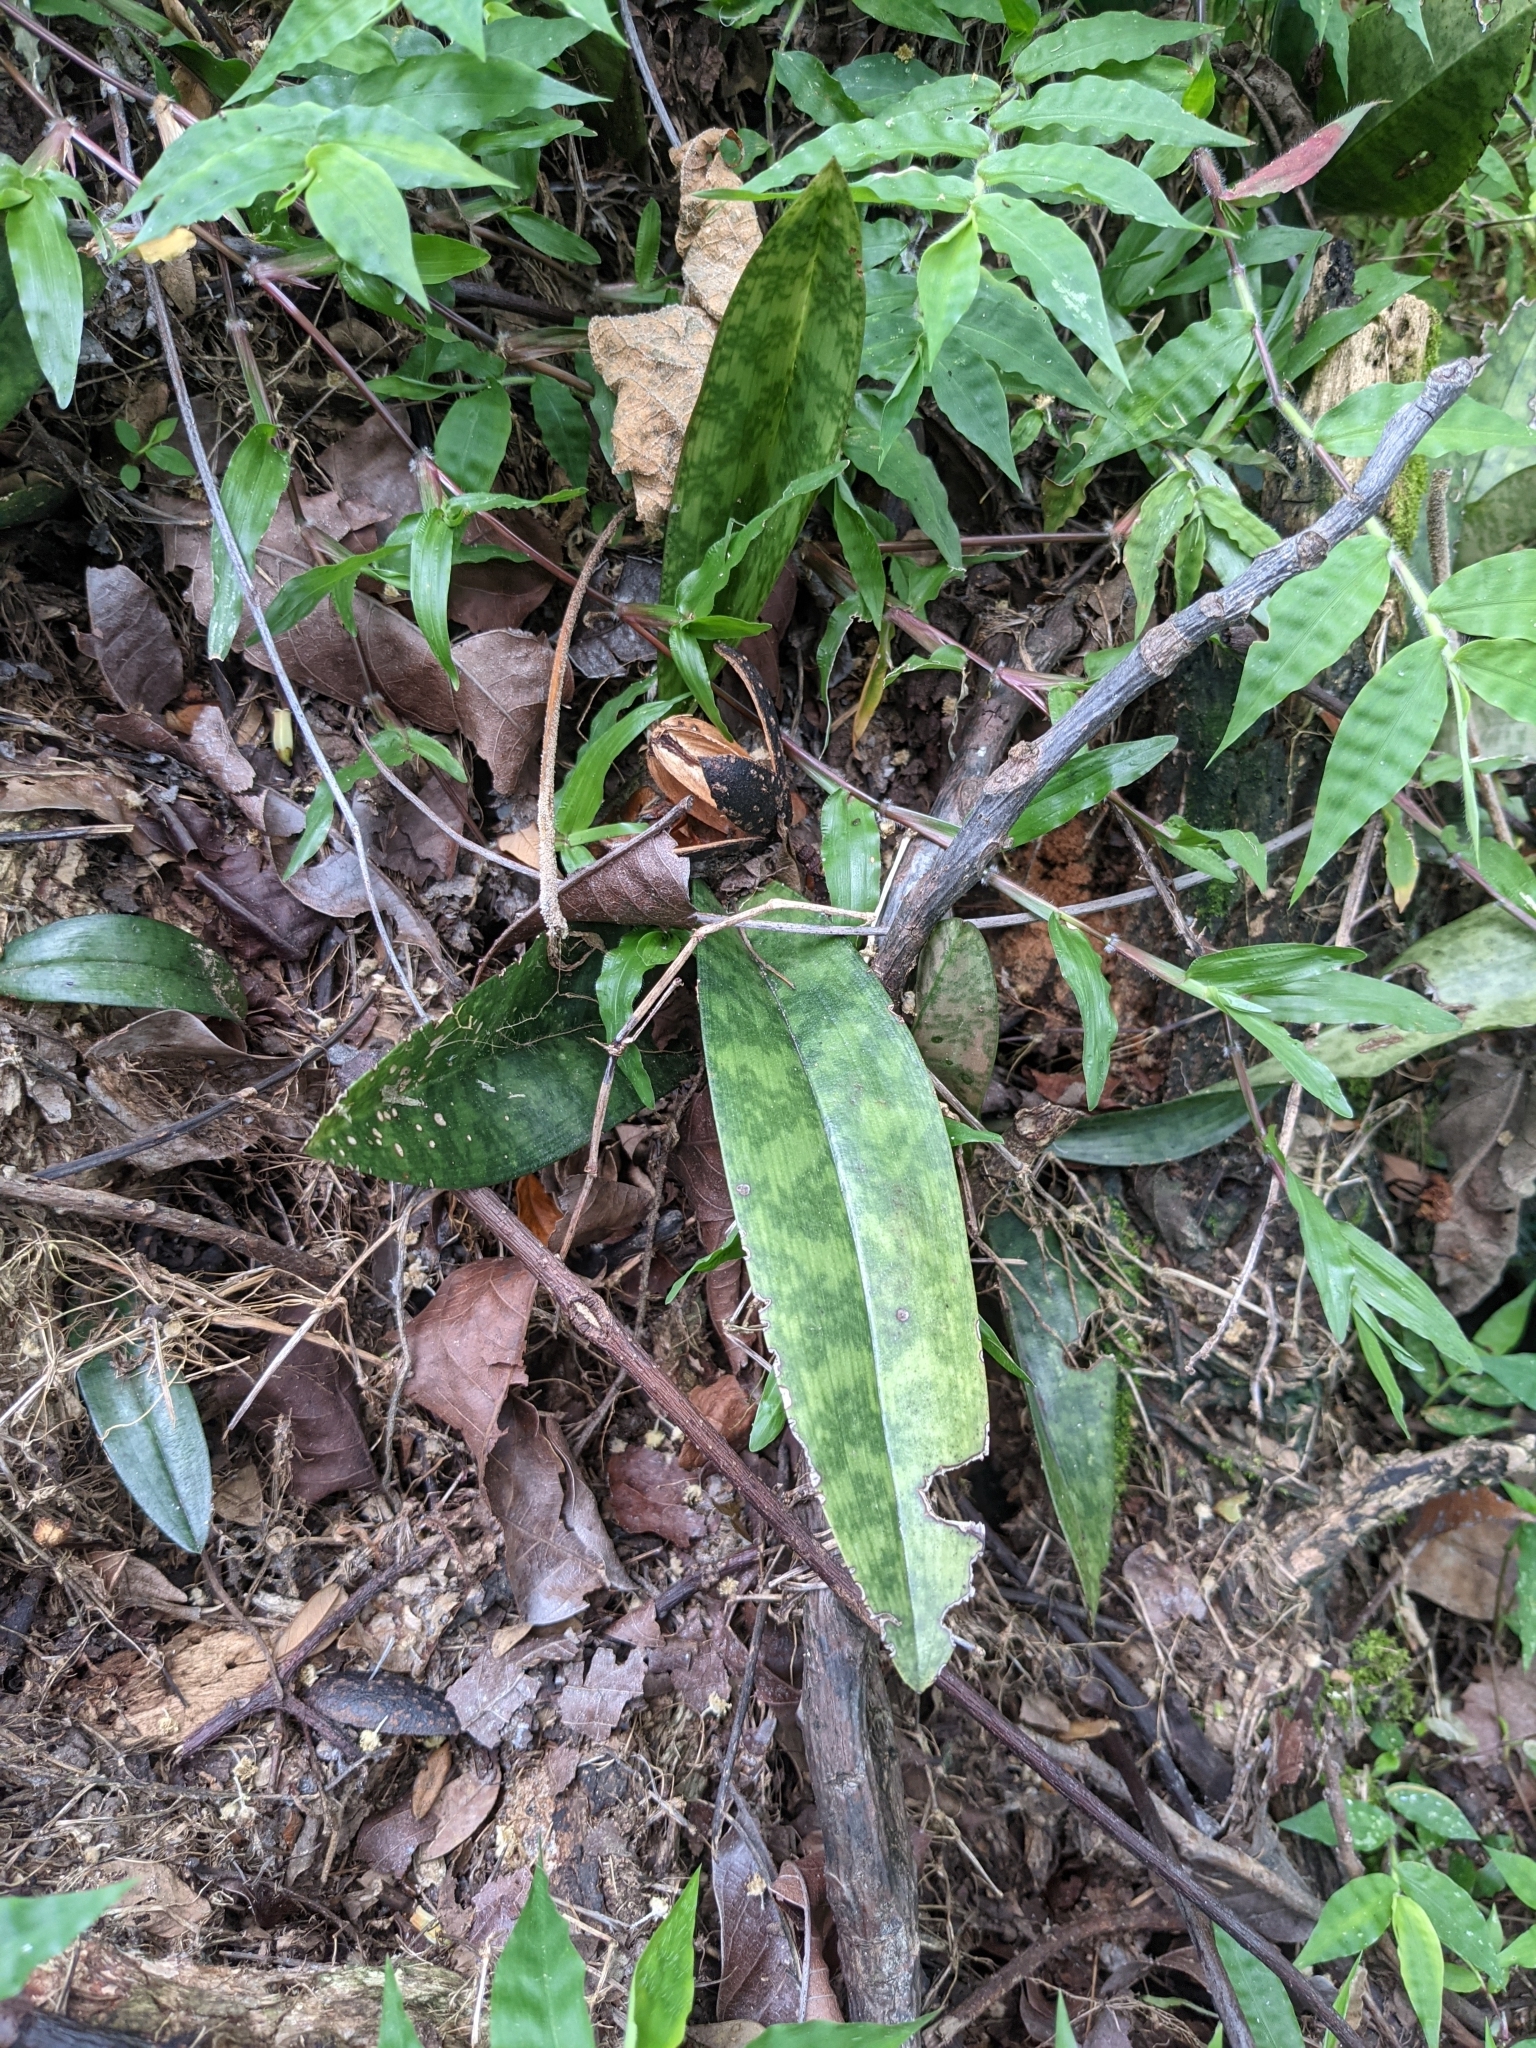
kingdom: Plantae
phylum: Tracheophyta
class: Liliopsida
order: Asparagales
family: Orchidaceae
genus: Eulophia
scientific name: Eulophia maculata
